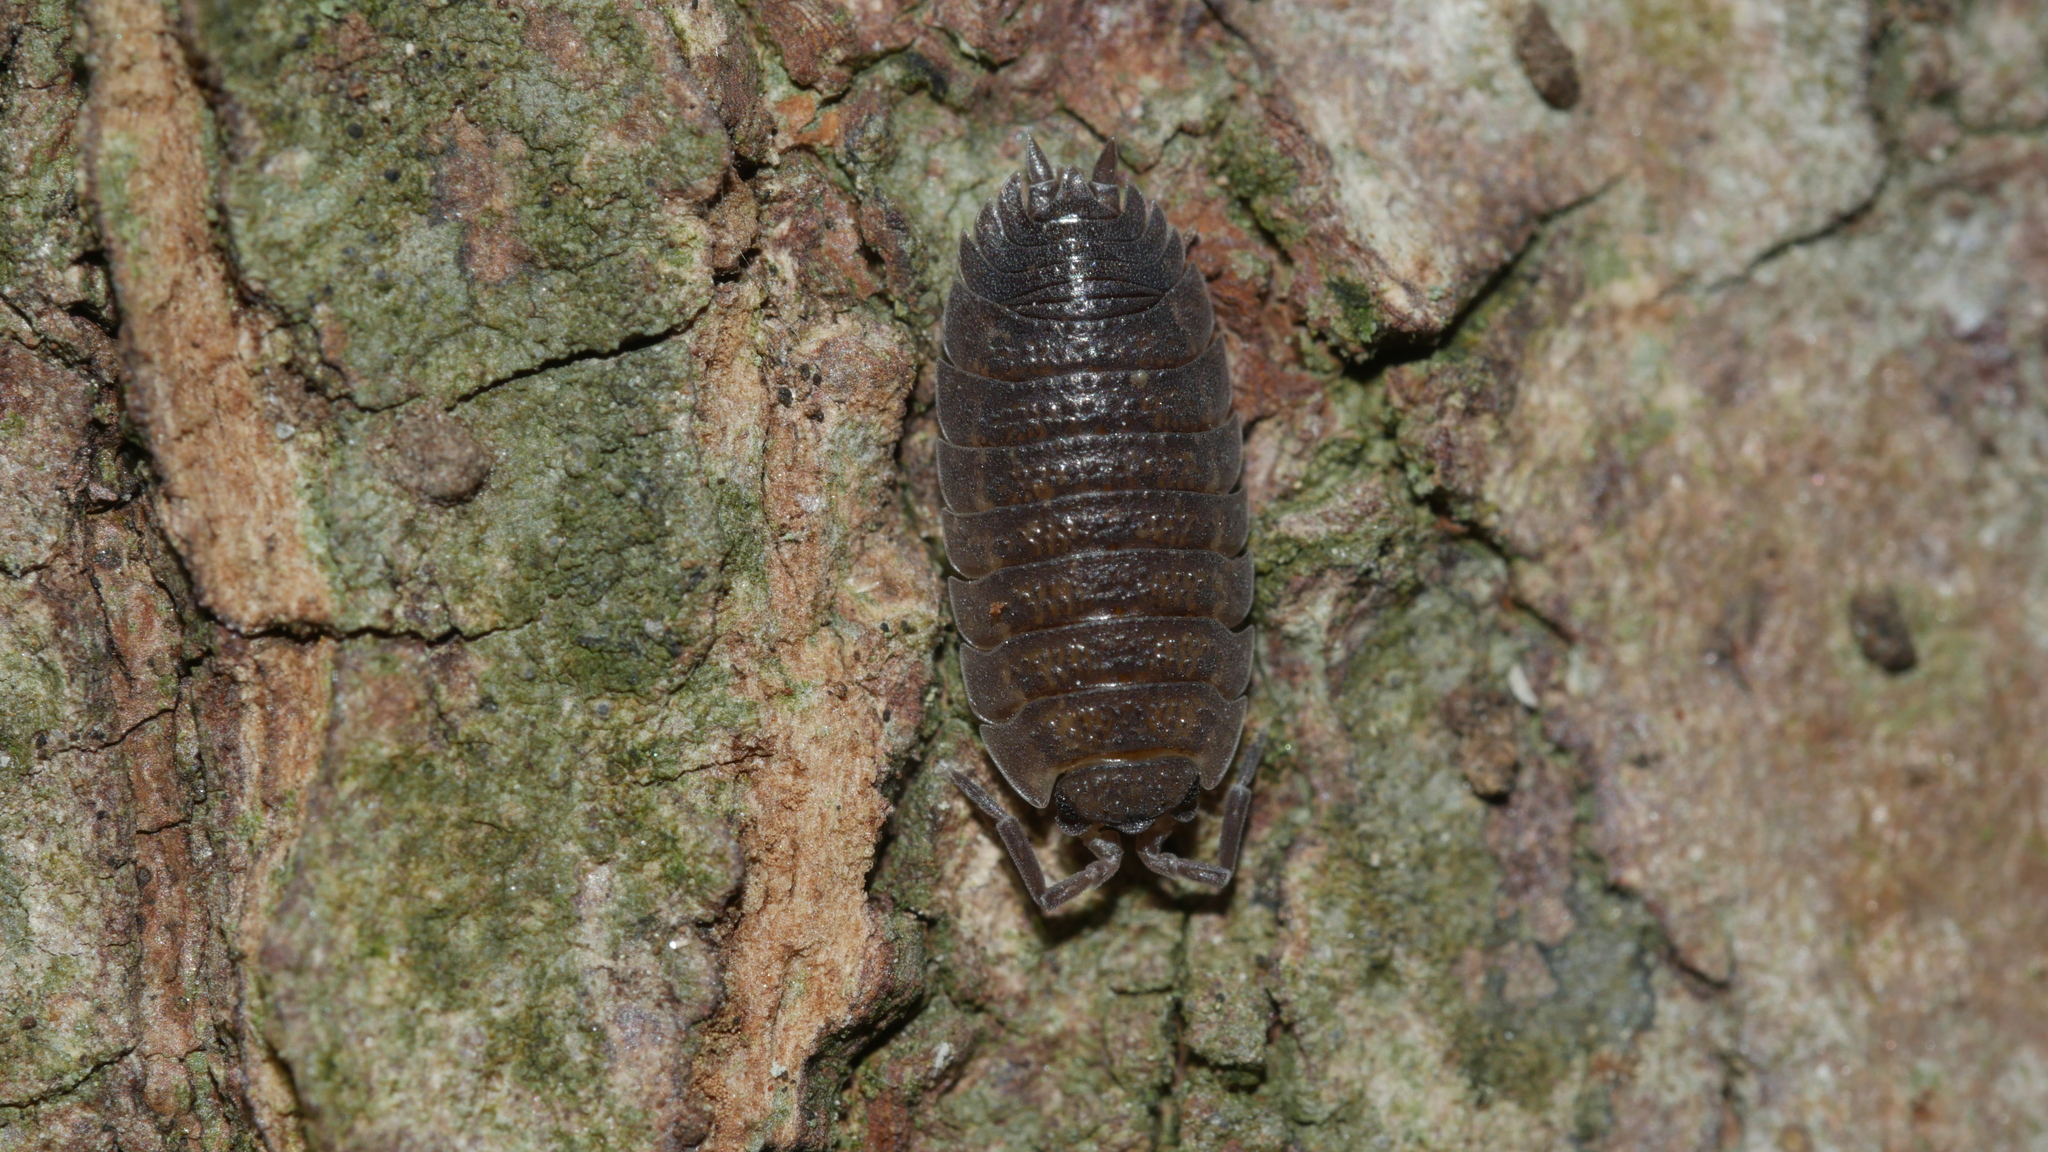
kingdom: Animalia
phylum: Arthropoda
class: Malacostraca
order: Isopoda
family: Porcellionidae
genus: Porcellio
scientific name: Porcellio scaber
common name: Common rough woodlouse
